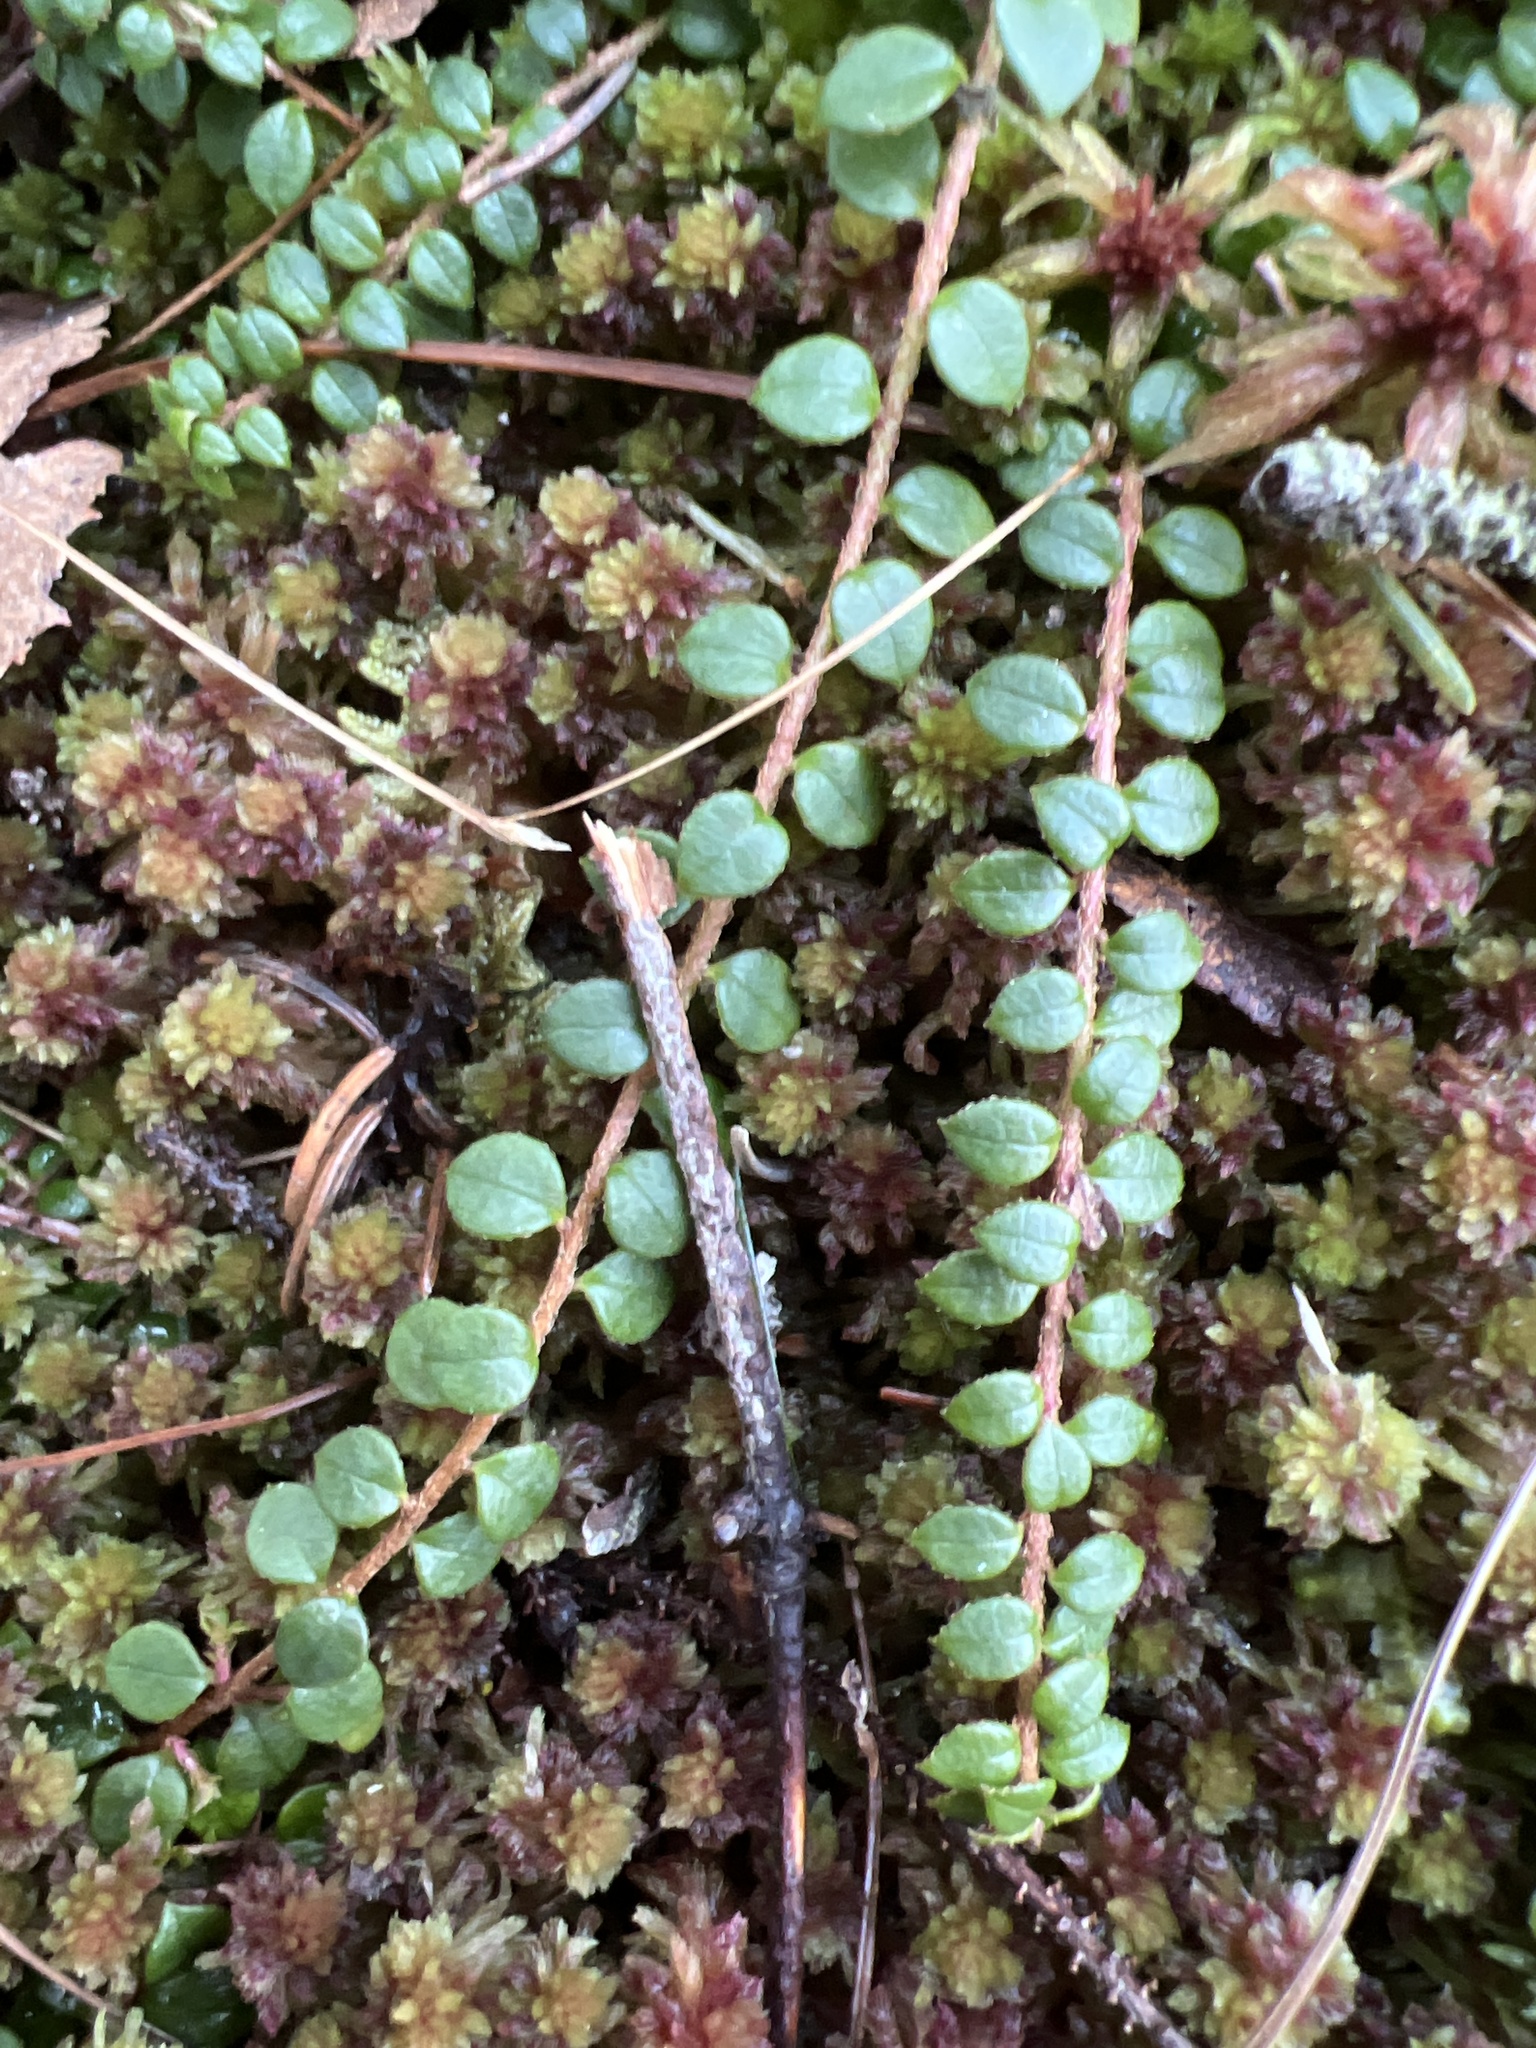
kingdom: Plantae
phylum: Tracheophyta
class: Magnoliopsida
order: Ericales
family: Ericaceae
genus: Gaultheria
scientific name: Gaultheria hispidula
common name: Cancer wintergreen
